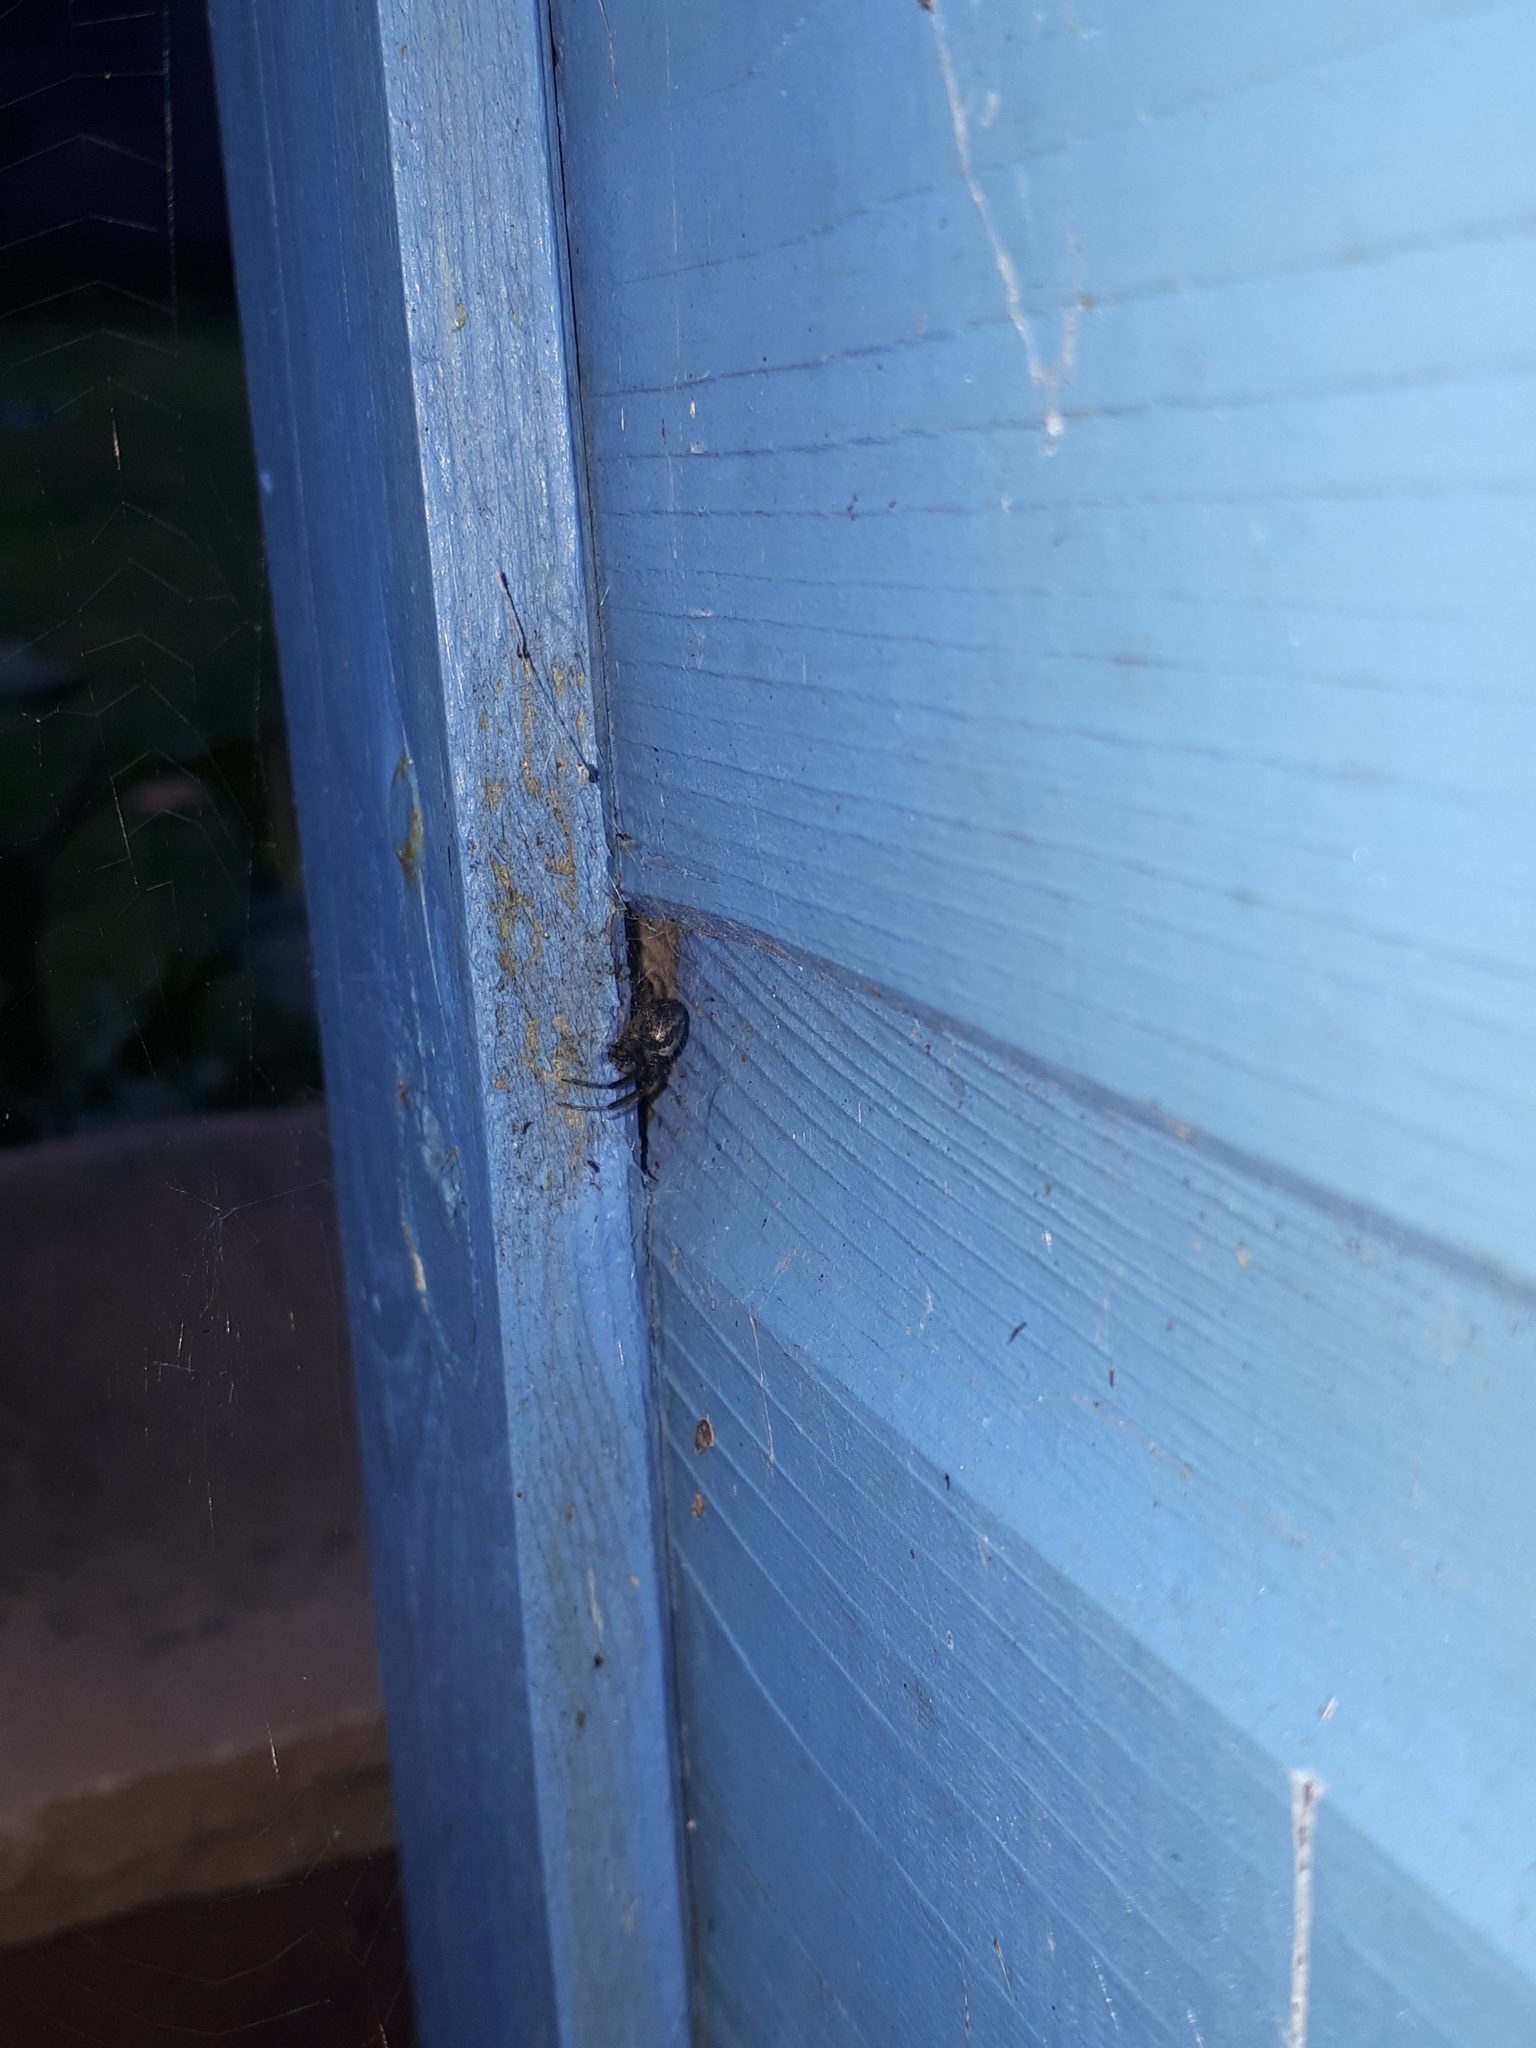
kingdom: Animalia
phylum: Arthropoda
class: Arachnida
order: Araneae
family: Araneidae
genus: Zygiella
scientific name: Zygiella x-notata
